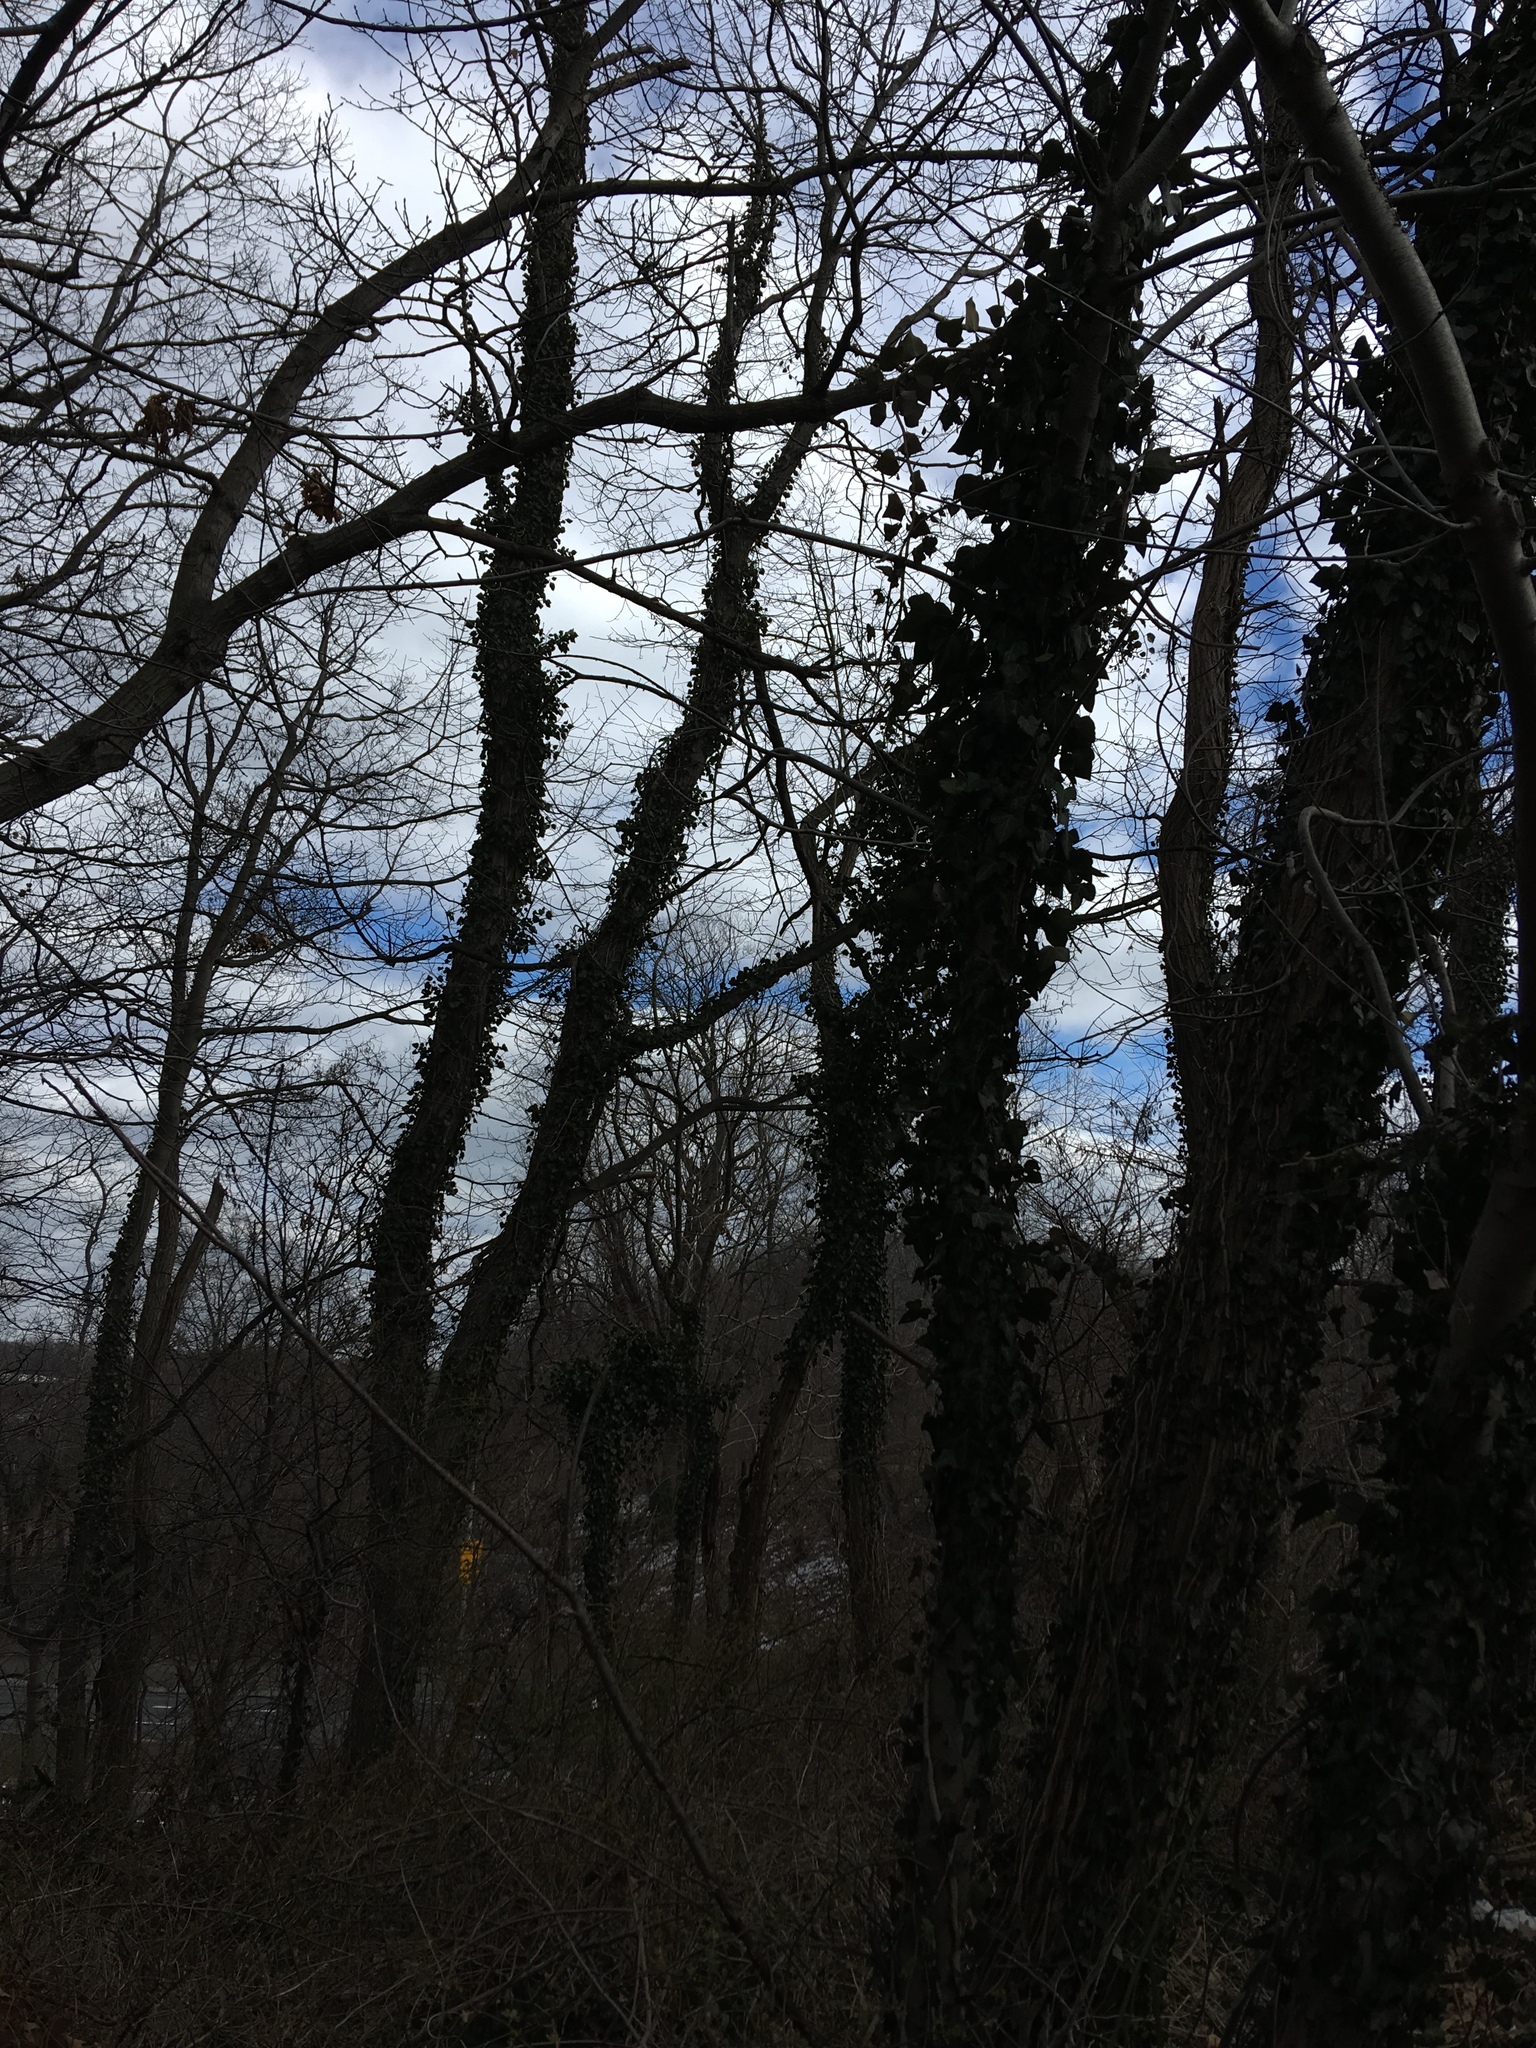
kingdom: Plantae
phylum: Tracheophyta
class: Magnoliopsida
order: Apiales
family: Araliaceae
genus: Hedera
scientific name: Hedera helix
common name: Ivy
